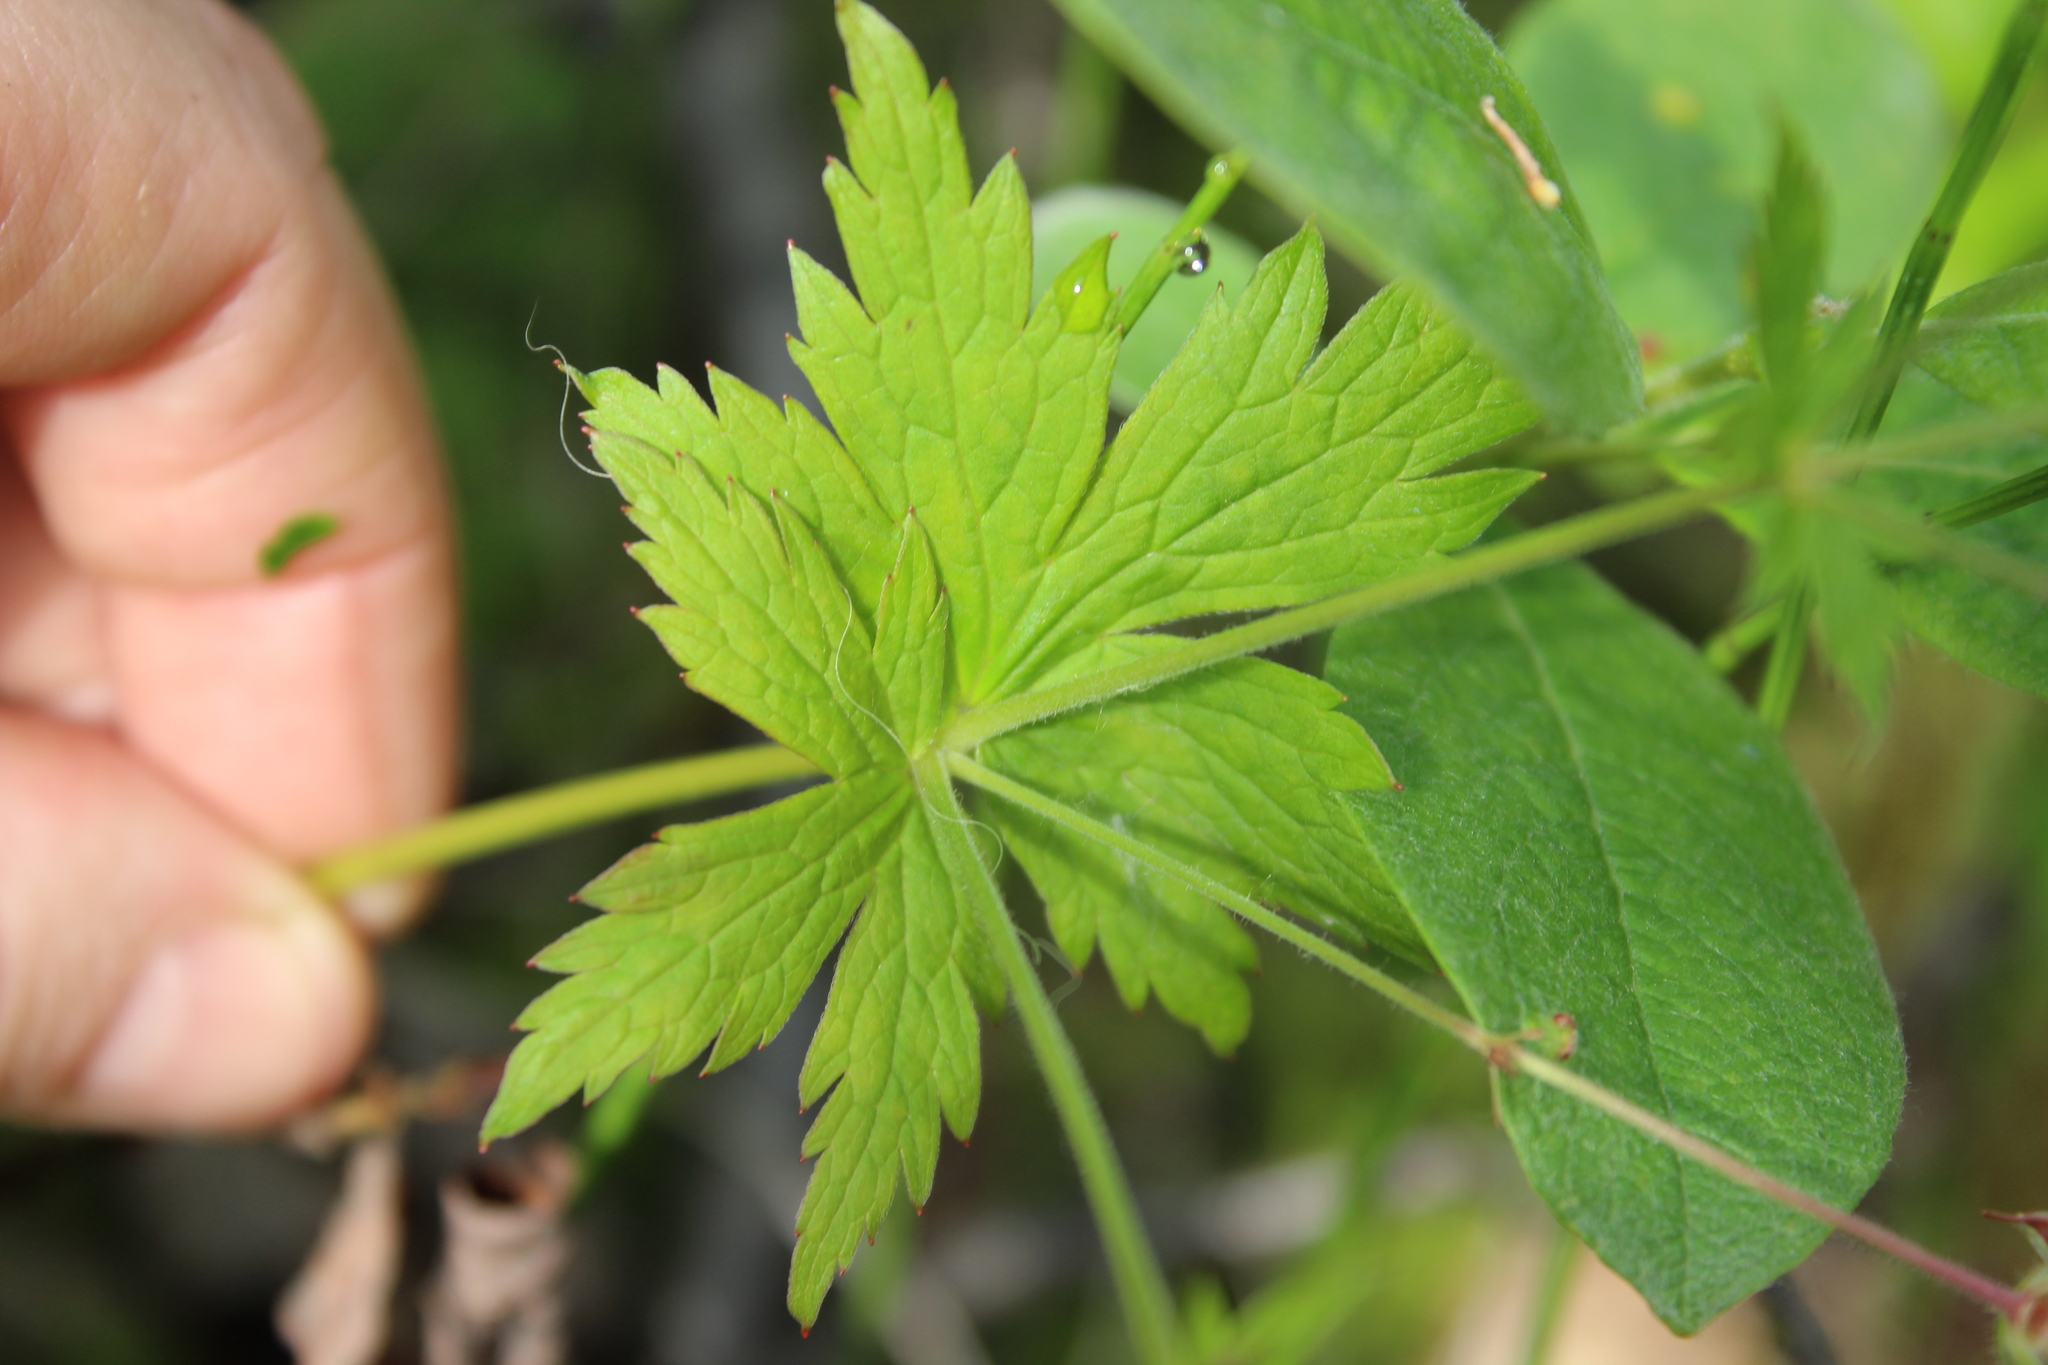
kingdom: Plantae
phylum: Tracheophyta
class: Magnoliopsida
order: Geraniales
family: Geraniaceae
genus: Geranium
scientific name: Geranium sylvaticum
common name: Wood crane's-bill
